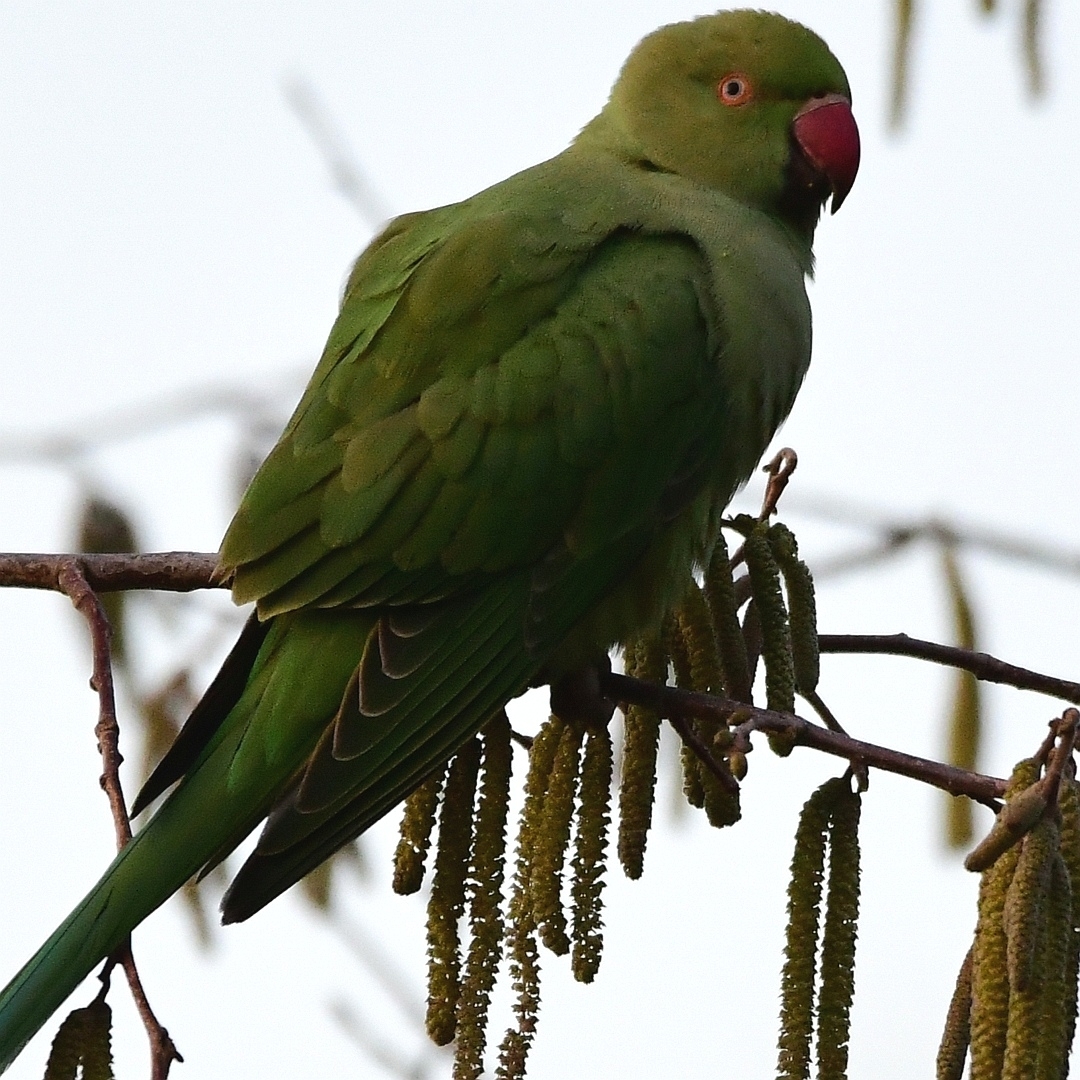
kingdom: Animalia
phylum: Chordata
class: Aves
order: Psittaciformes
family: Psittacidae
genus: Psittacula
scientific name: Psittacula krameri
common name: Rose-ringed parakeet
